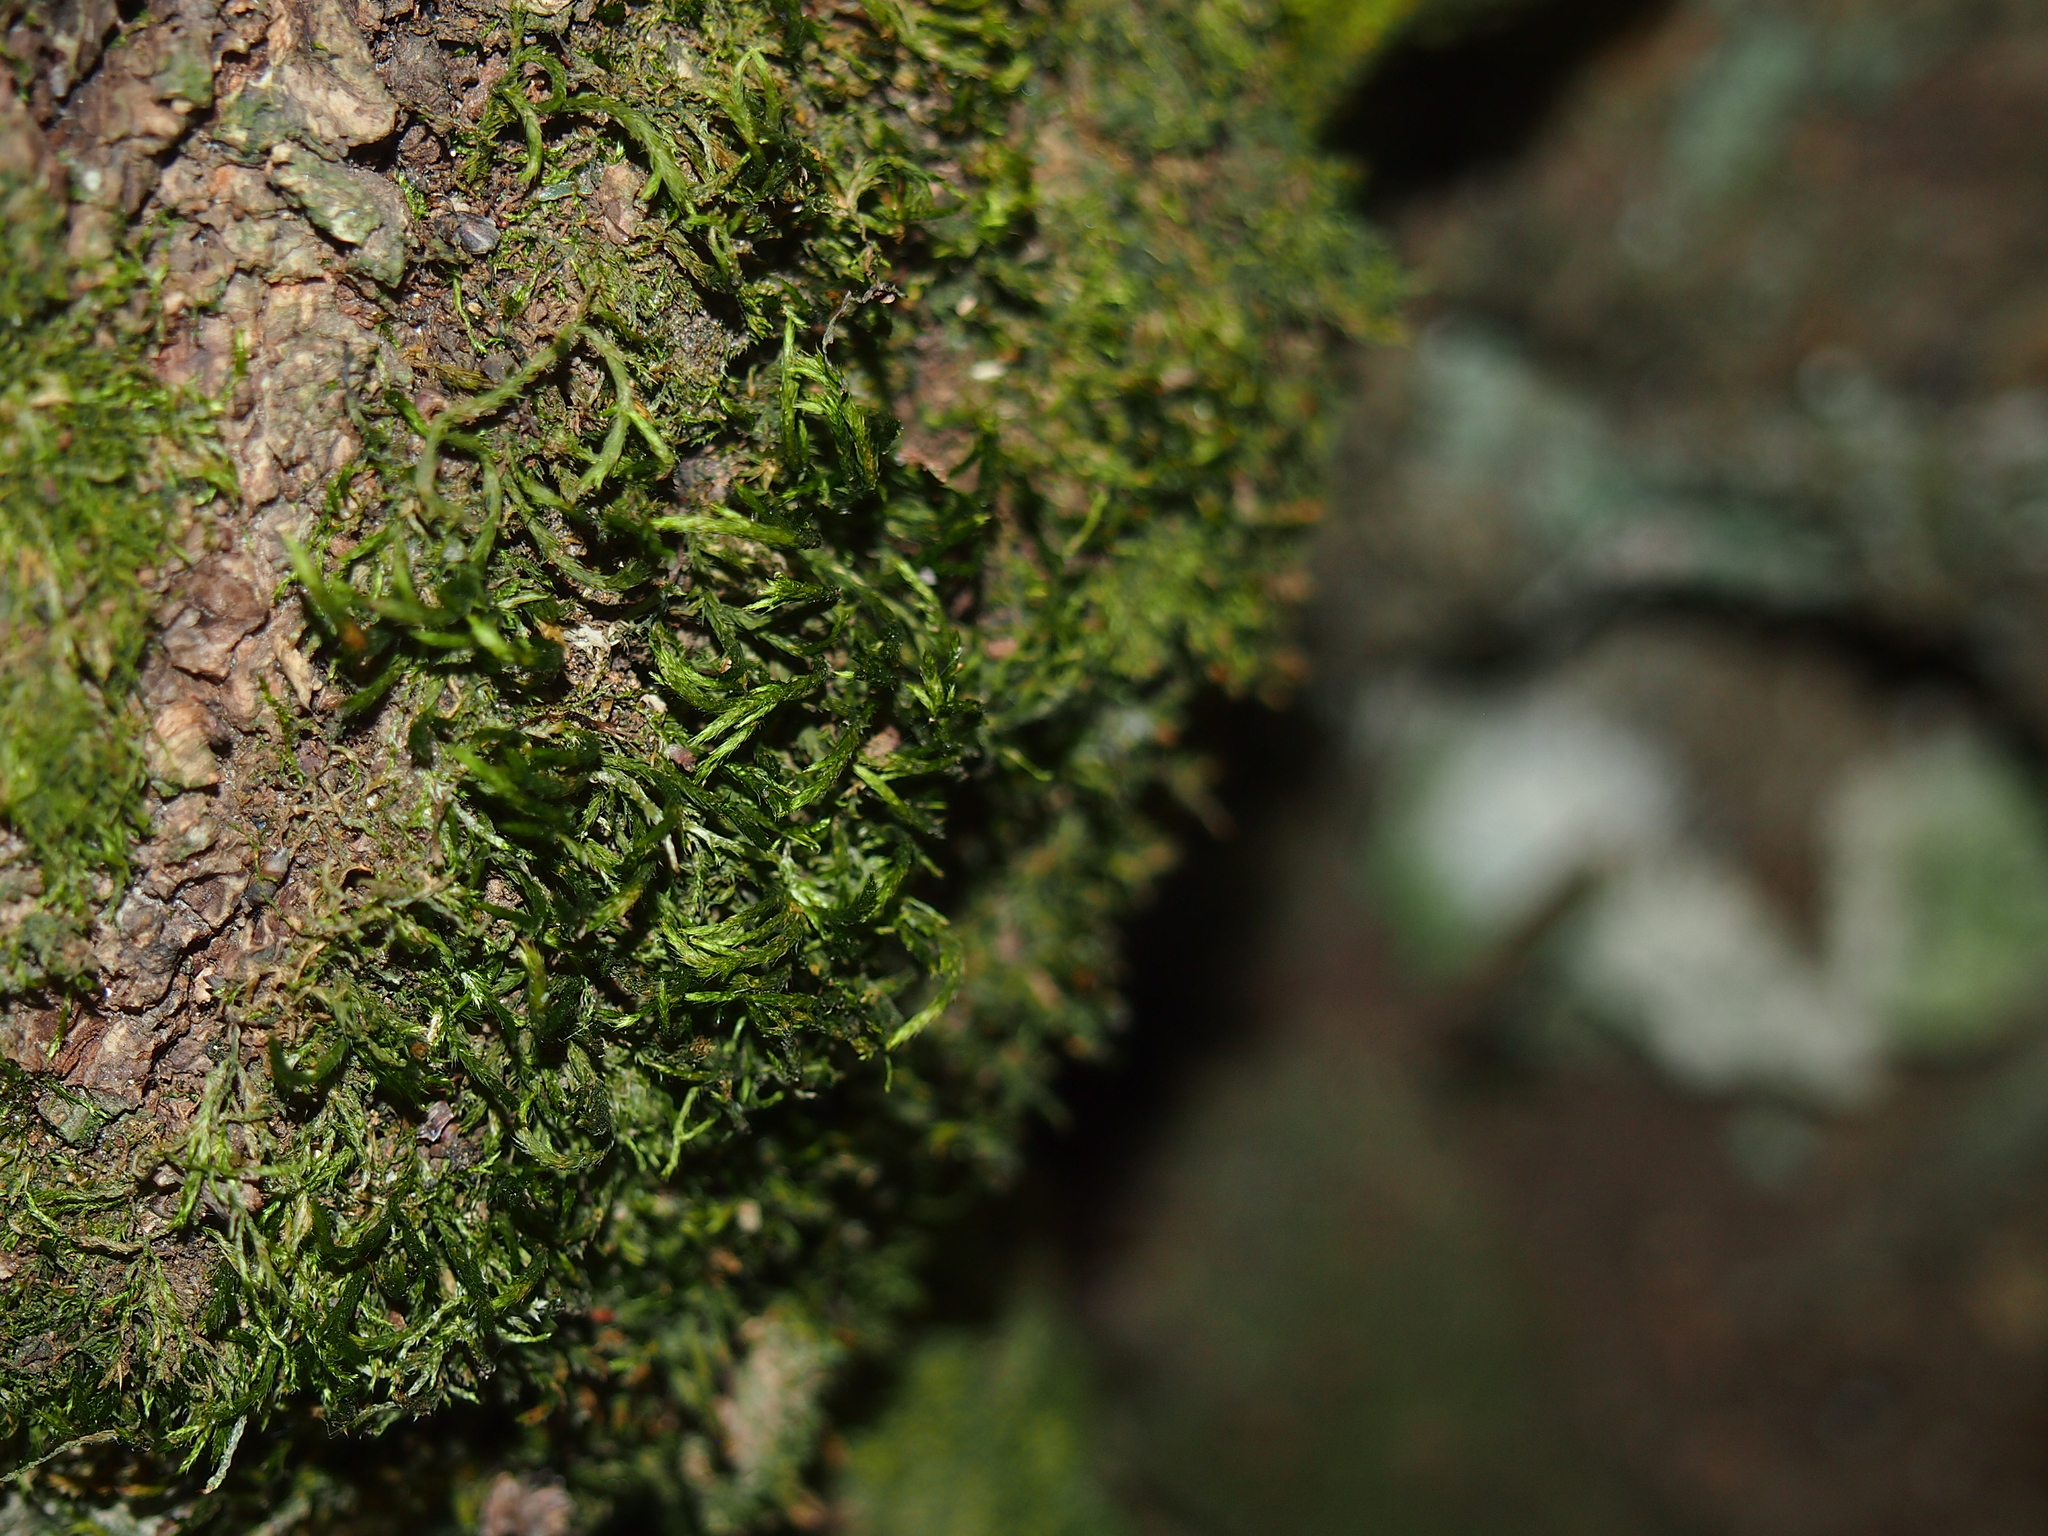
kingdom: Plantae
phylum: Bryophyta
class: Bryopsida
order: Hypnales
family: Leucodontaceae
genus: Leucodon
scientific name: Leucodon sciuroides
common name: Squirrel-tail moss
